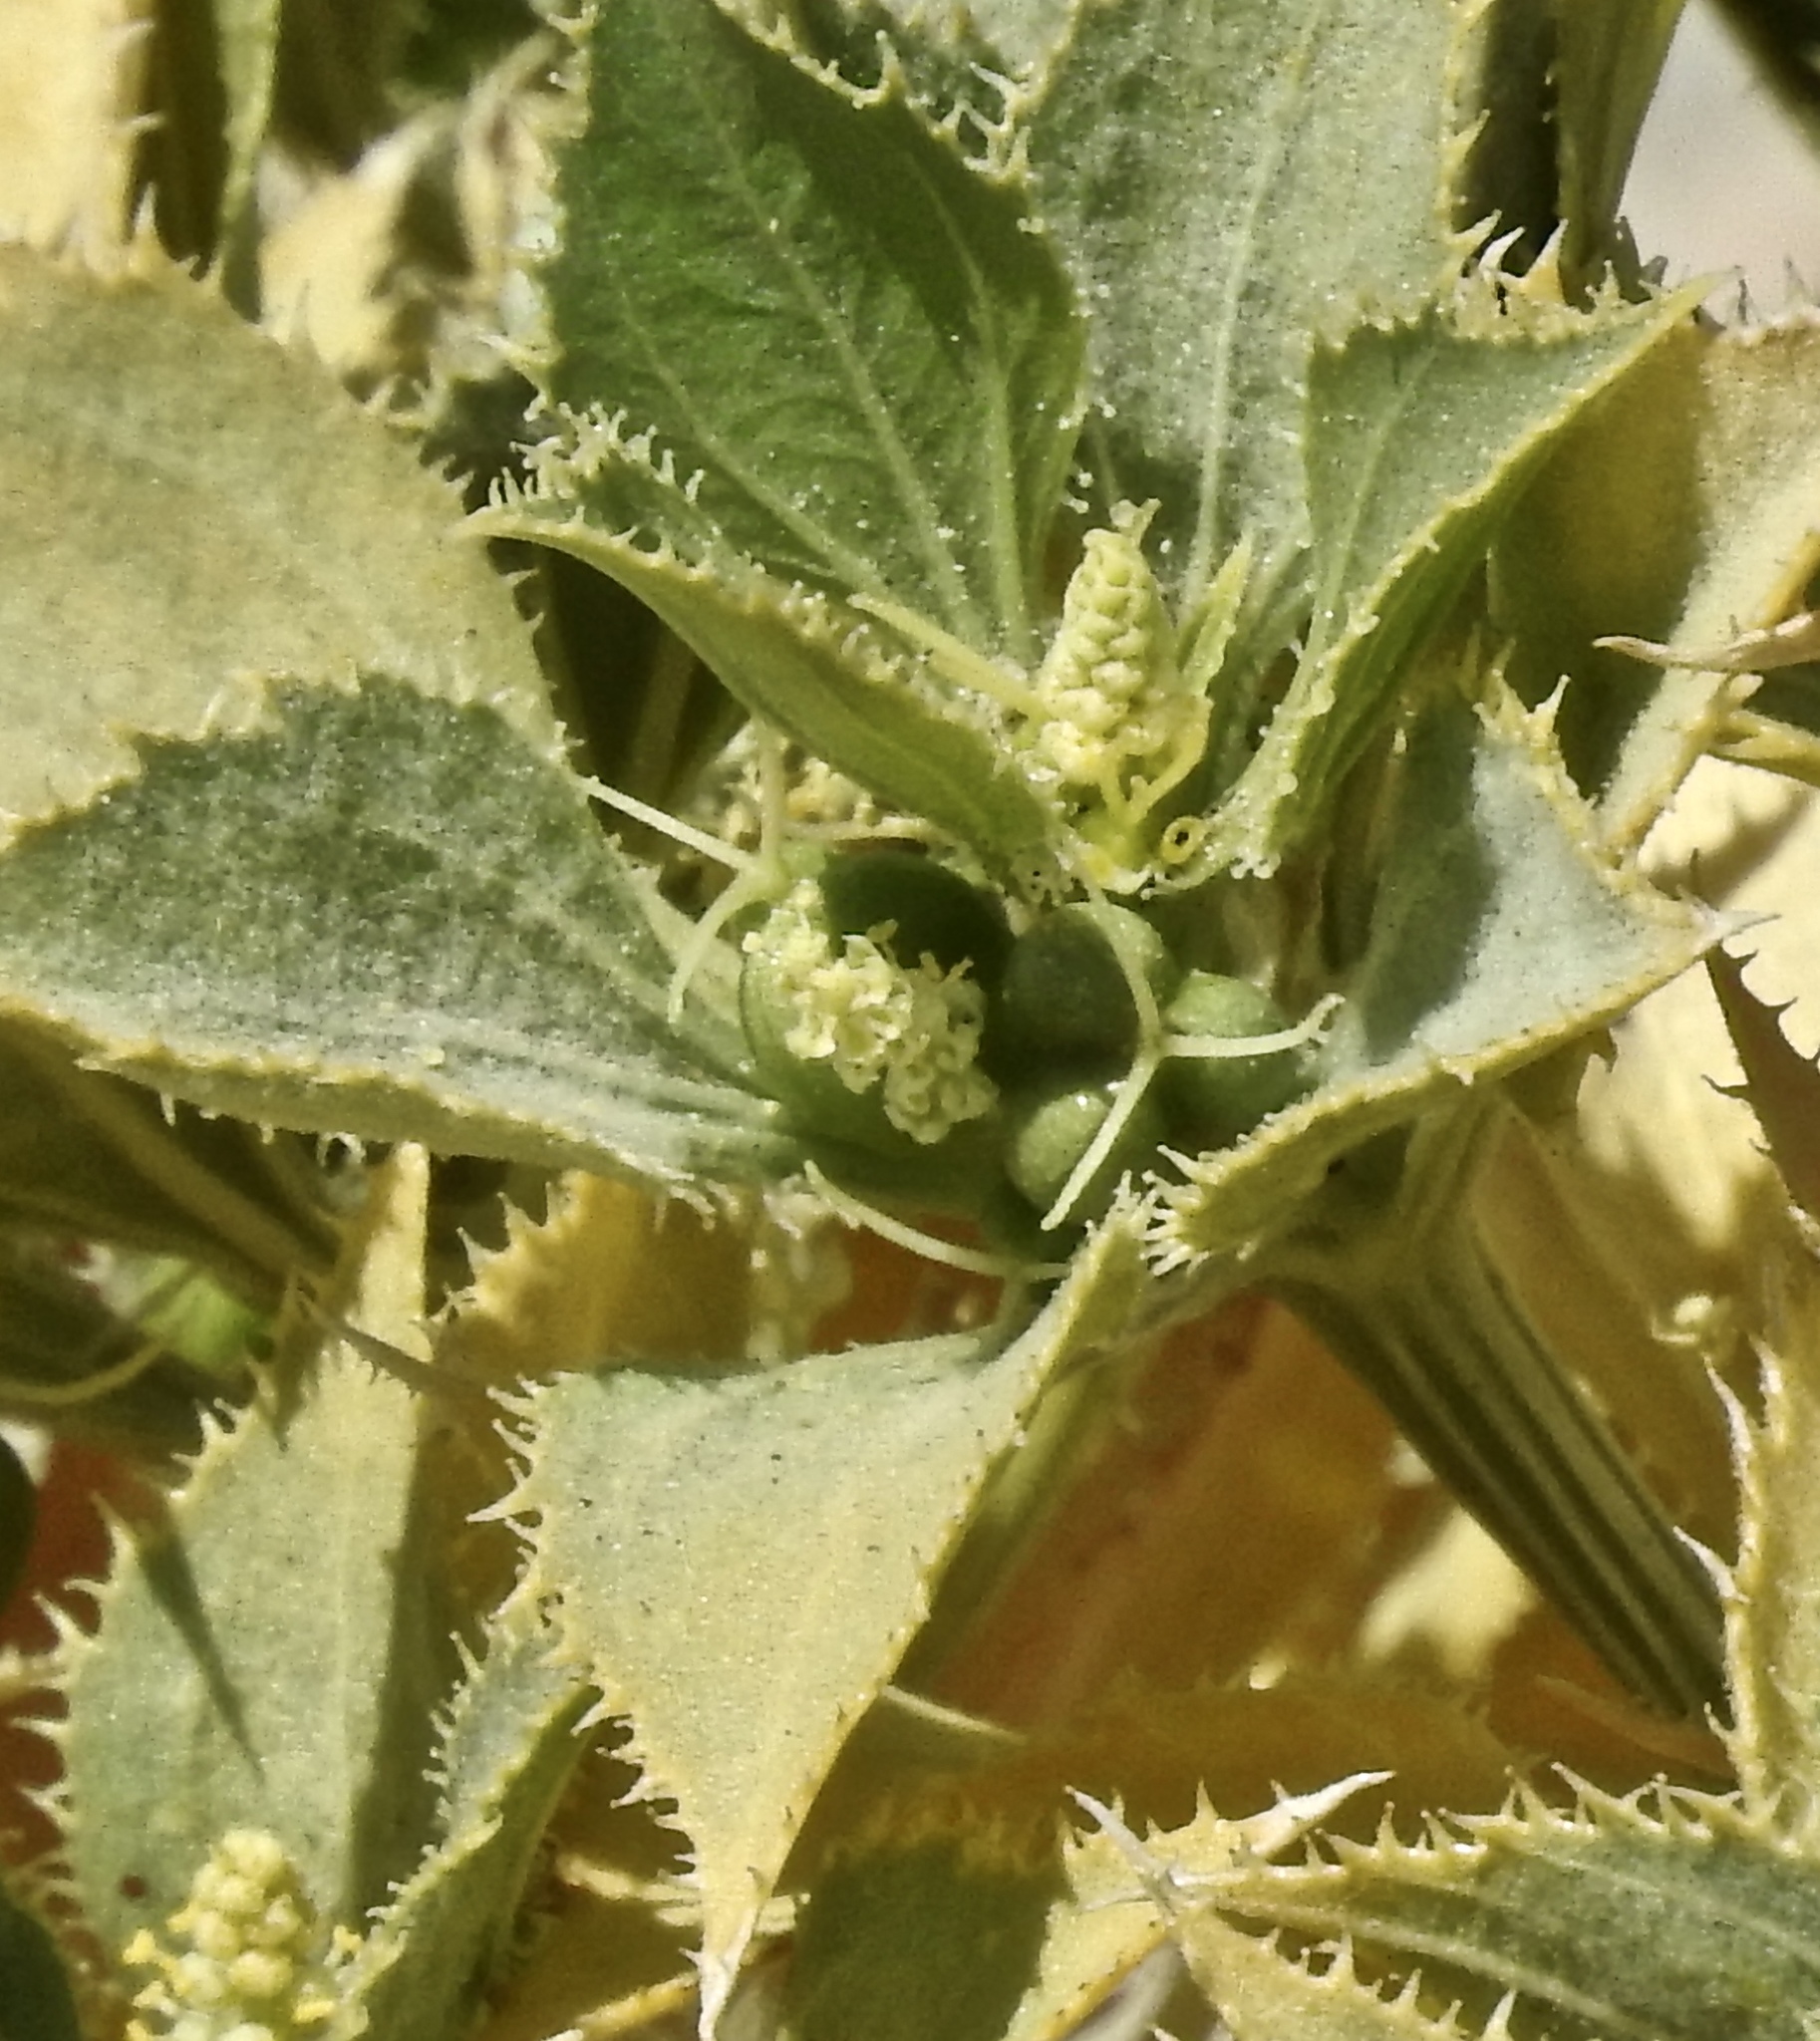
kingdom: Plantae
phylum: Tracheophyta
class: Magnoliopsida
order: Malpighiales
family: Euphorbiaceae
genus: Stillingia
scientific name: Stillingia spinulosa
